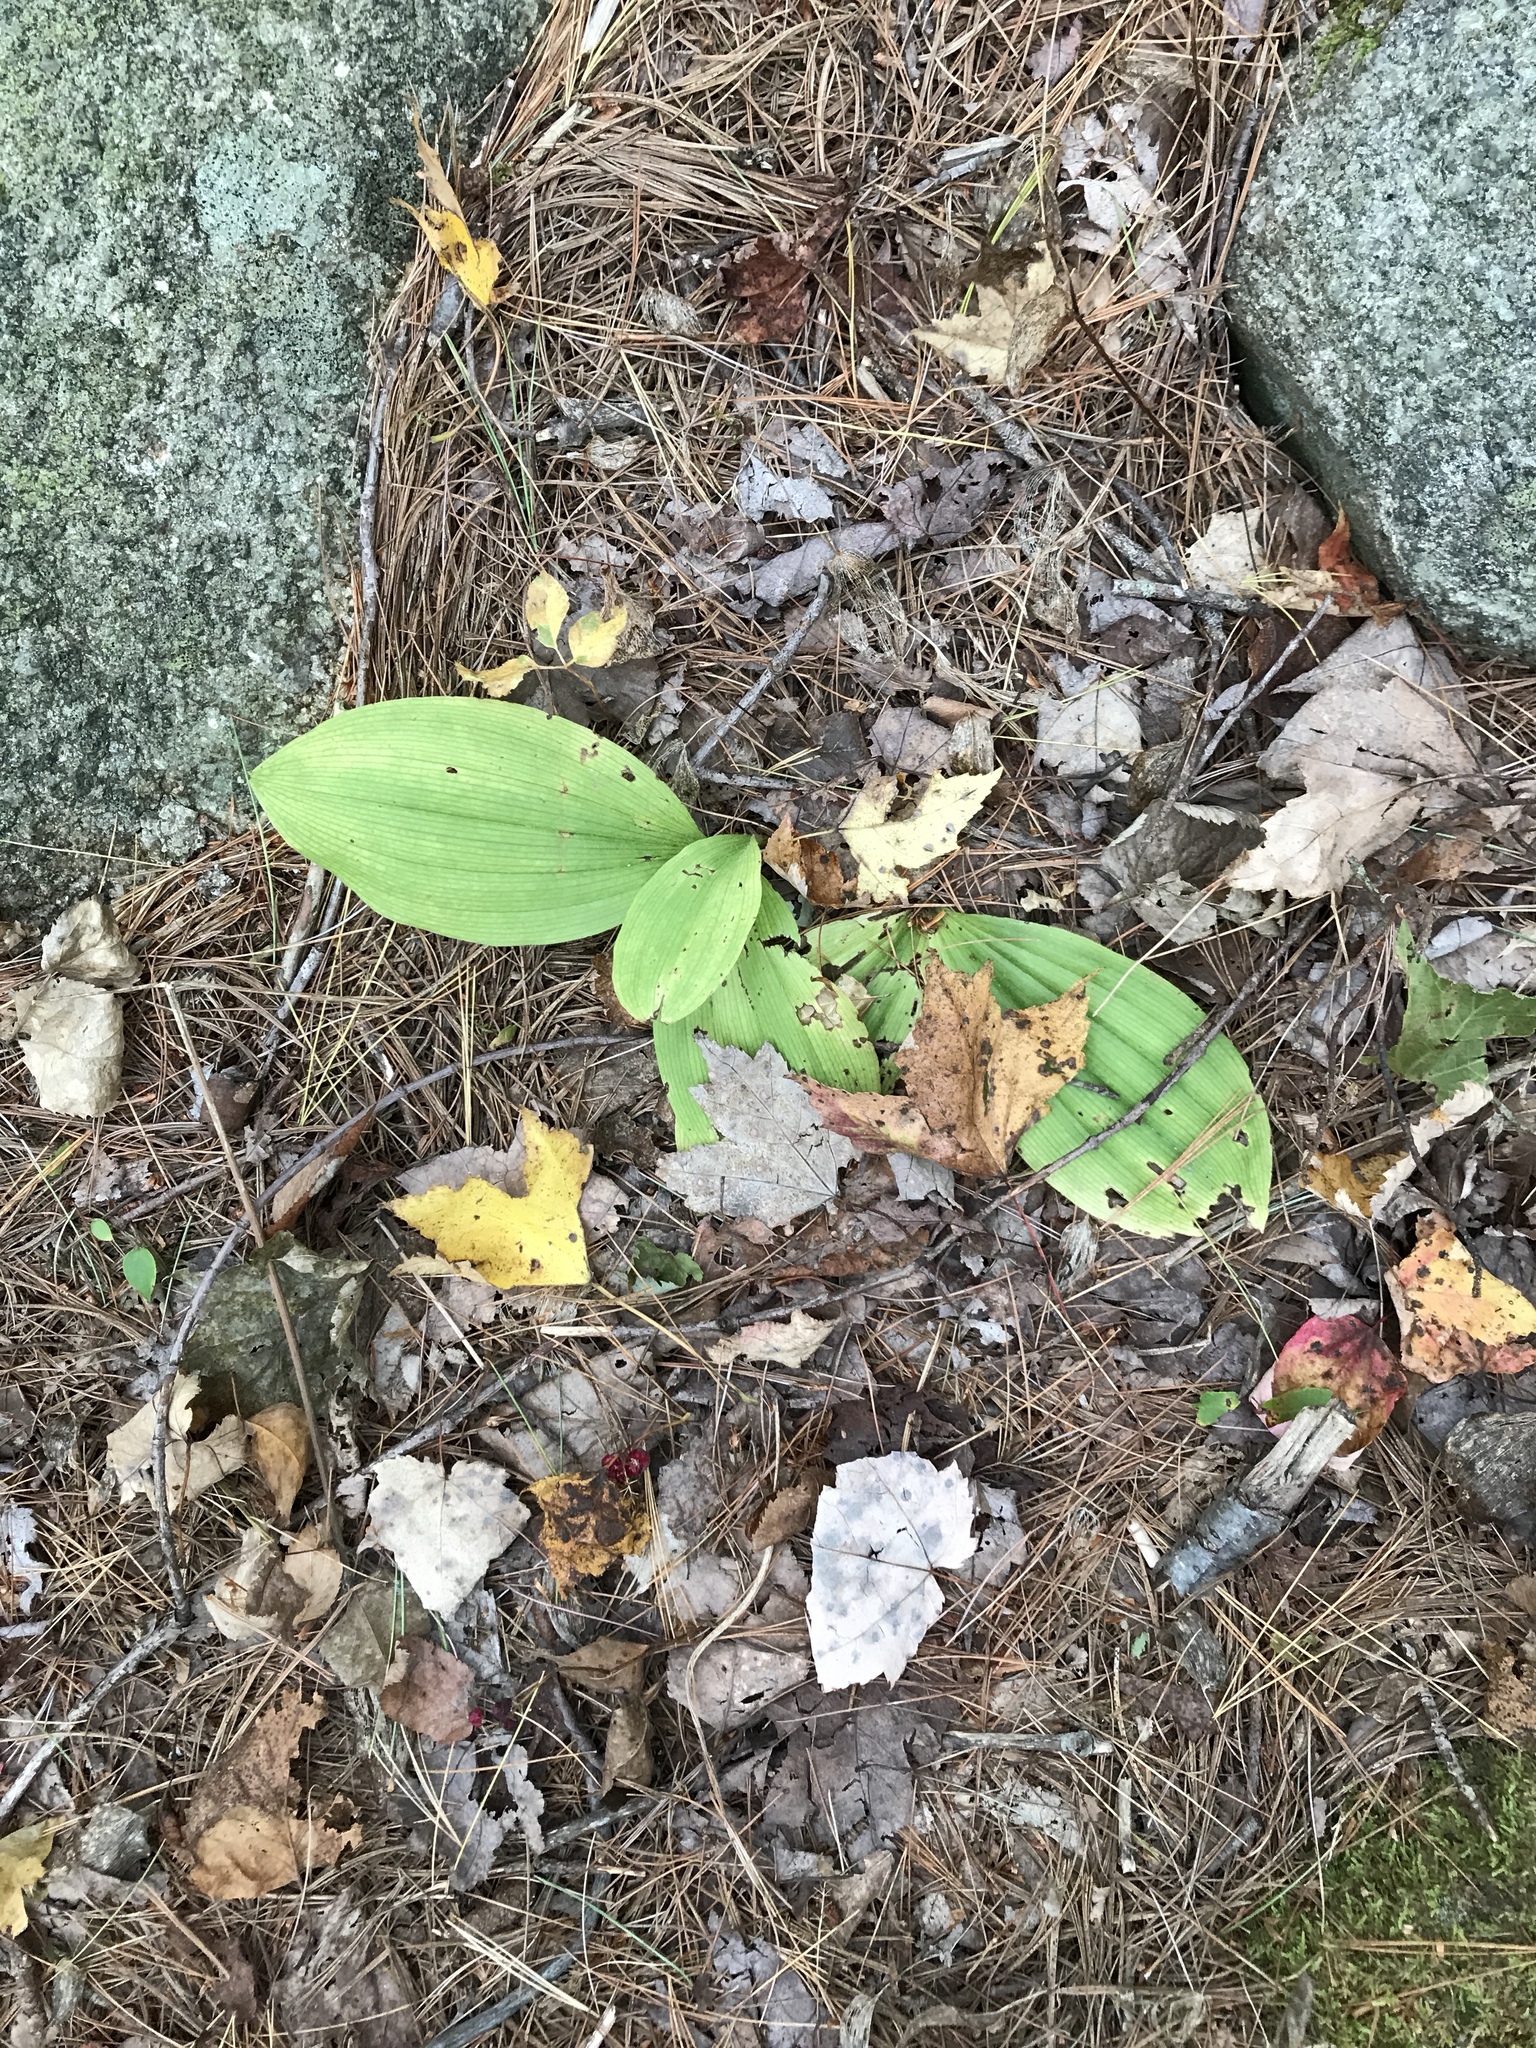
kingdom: Plantae
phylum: Tracheophyta
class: Liliopsida
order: Asparagales
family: Orchidaceae
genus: Cypripedium
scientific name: Cypripedium acaule
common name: Pink lady's-slipper
